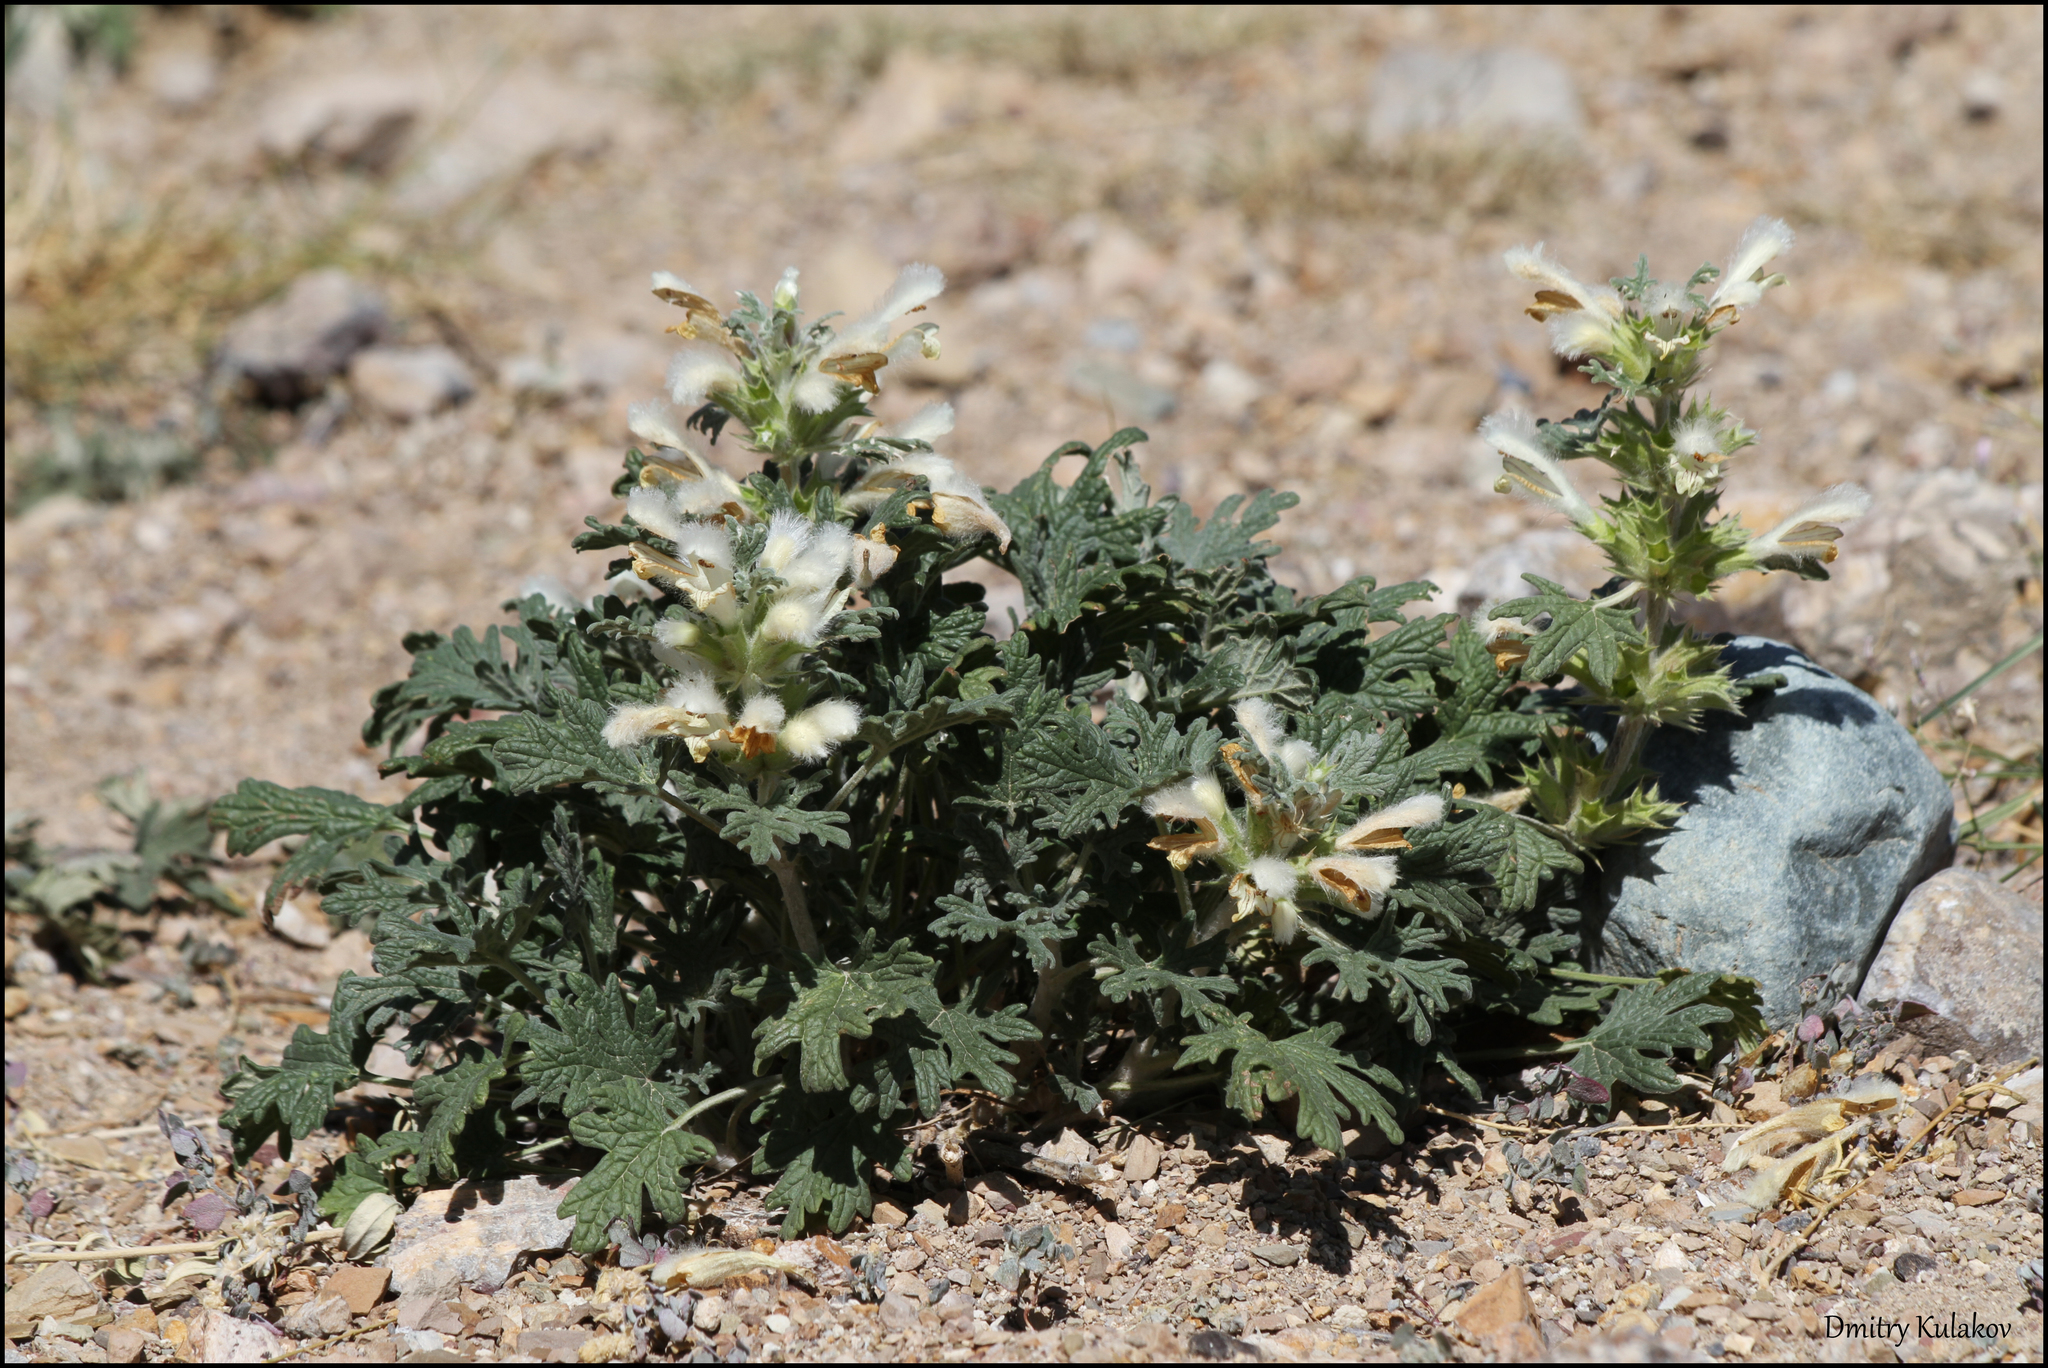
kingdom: Plantae
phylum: Tracheophyta
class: Magnoliopsida
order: Lamiales
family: Lamiaceae
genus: Panzerina
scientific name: Panzerina lanata
